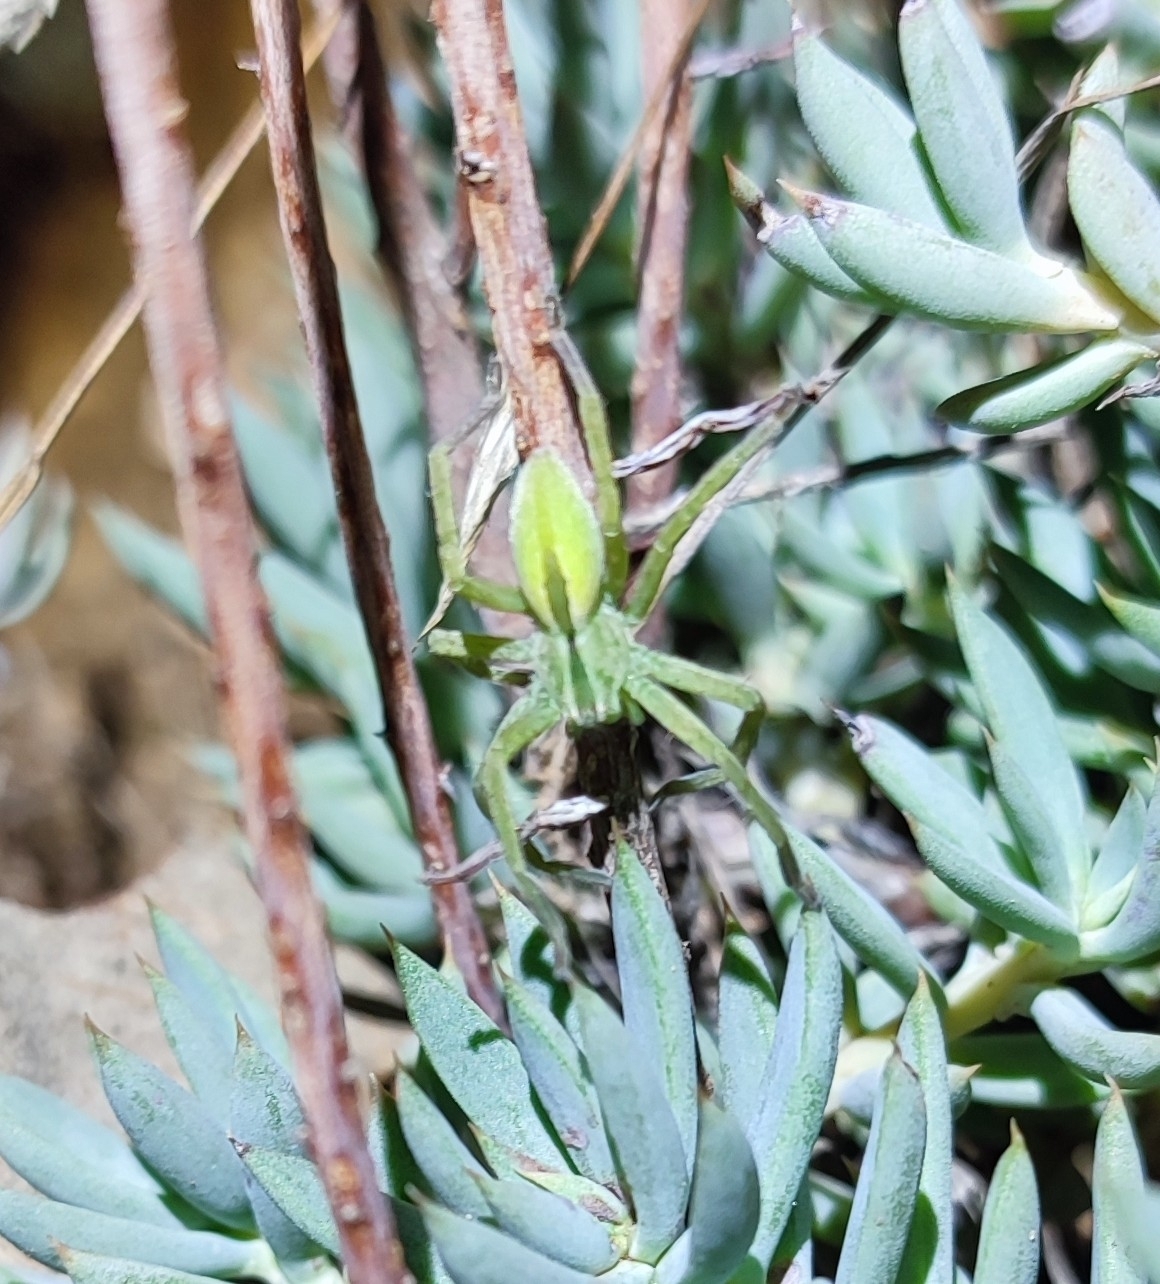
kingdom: Animalia
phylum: Arthropoda
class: Arachnida
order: Araneae
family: Sparassidae
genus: Micrommata
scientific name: Micrommata ligurina
